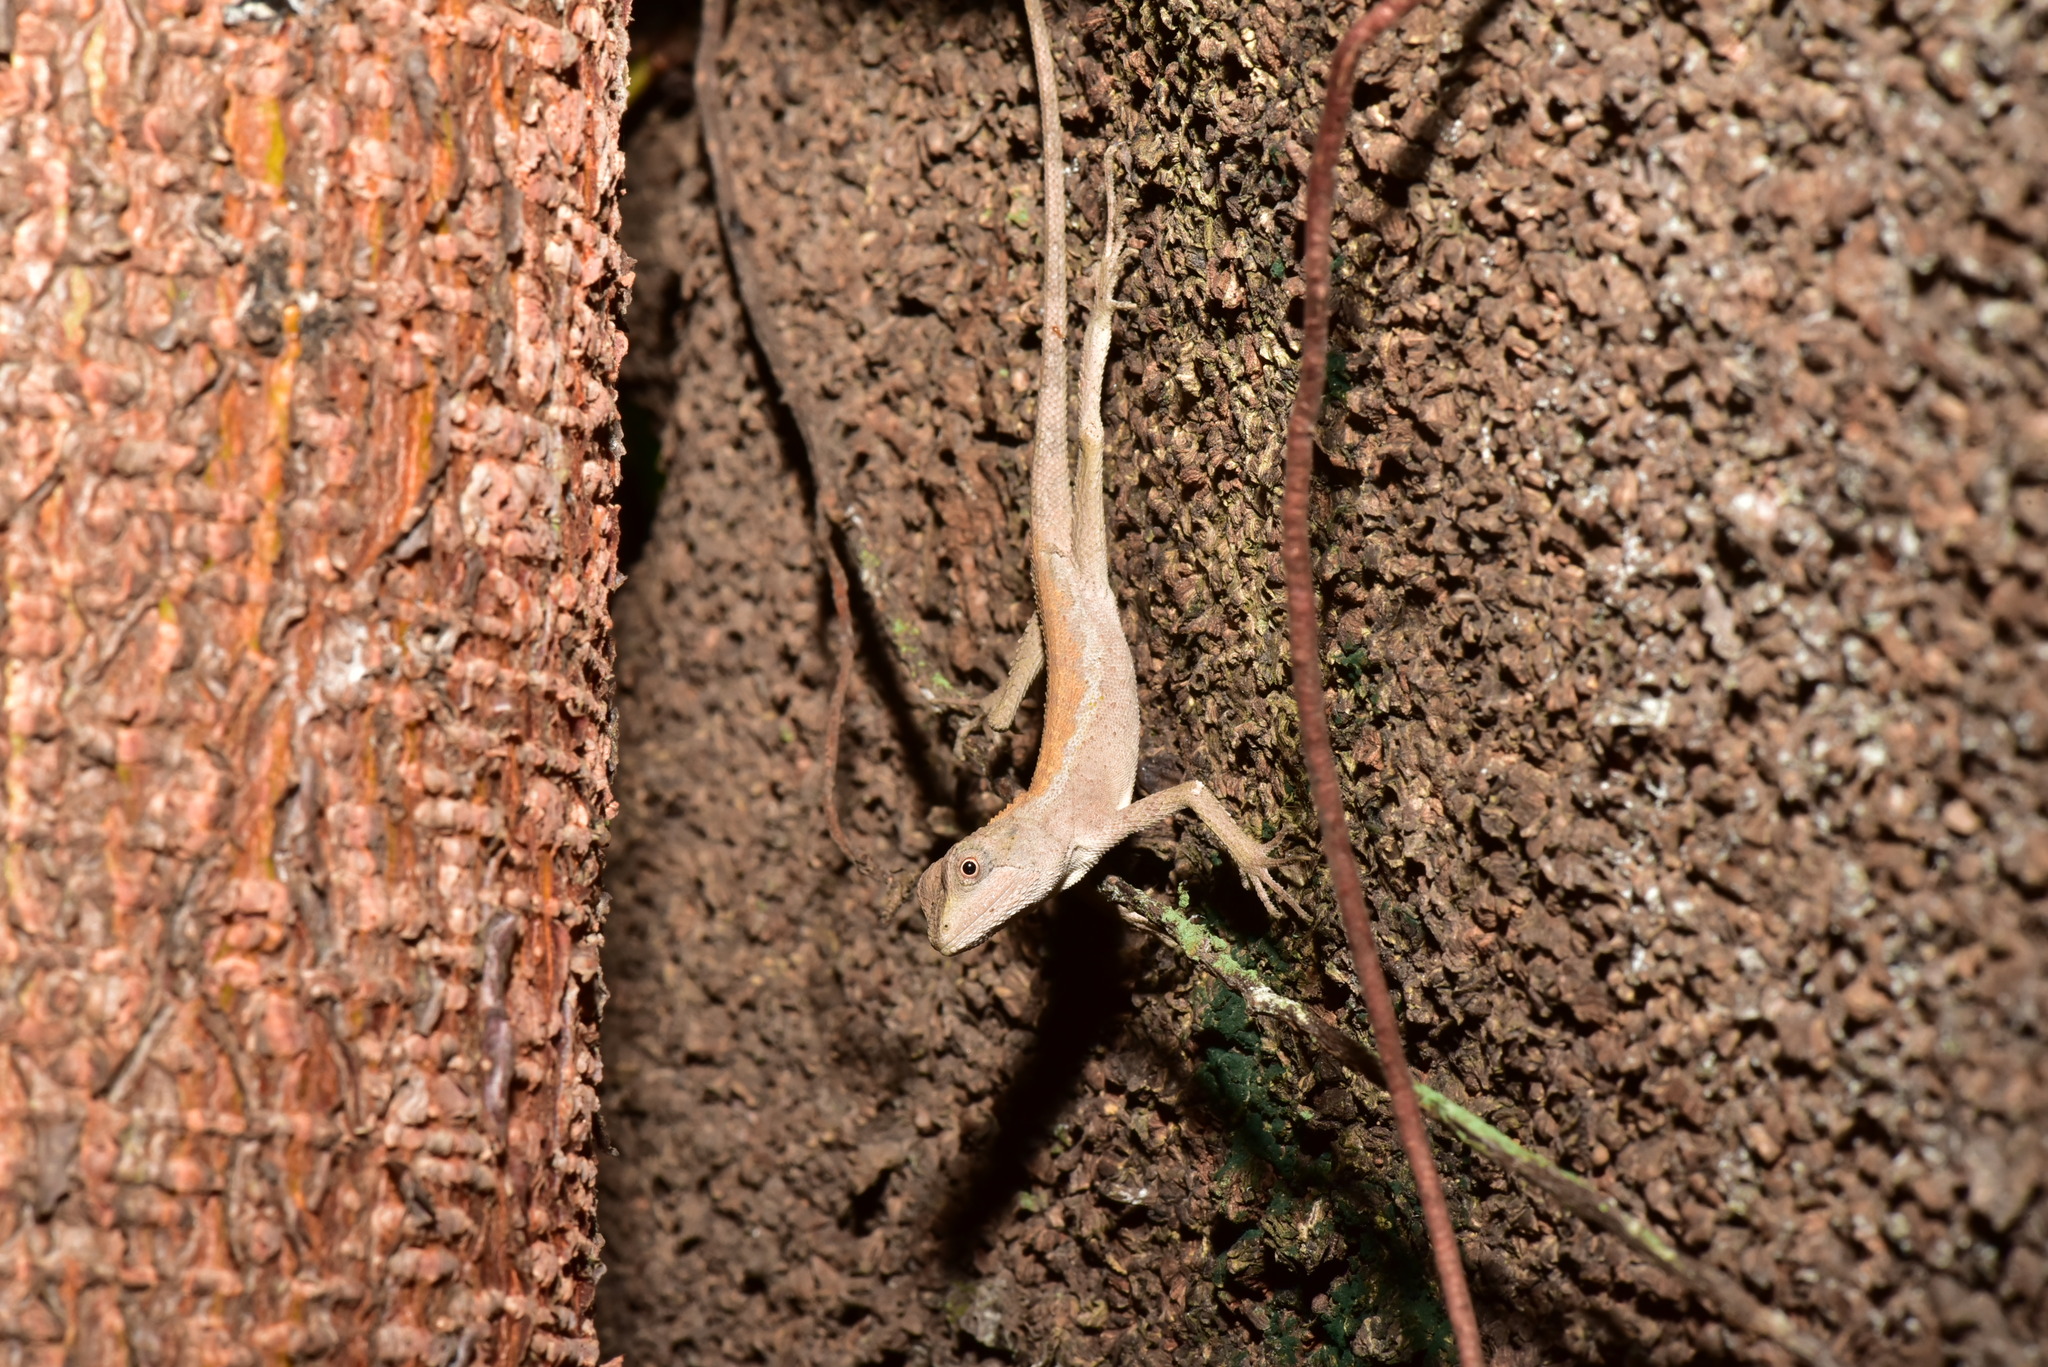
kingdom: Animalia
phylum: Chordata
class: Squamata
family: Agamidae
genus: Diploderma
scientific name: Diploderma swinhonis
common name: Taiwan japalure
